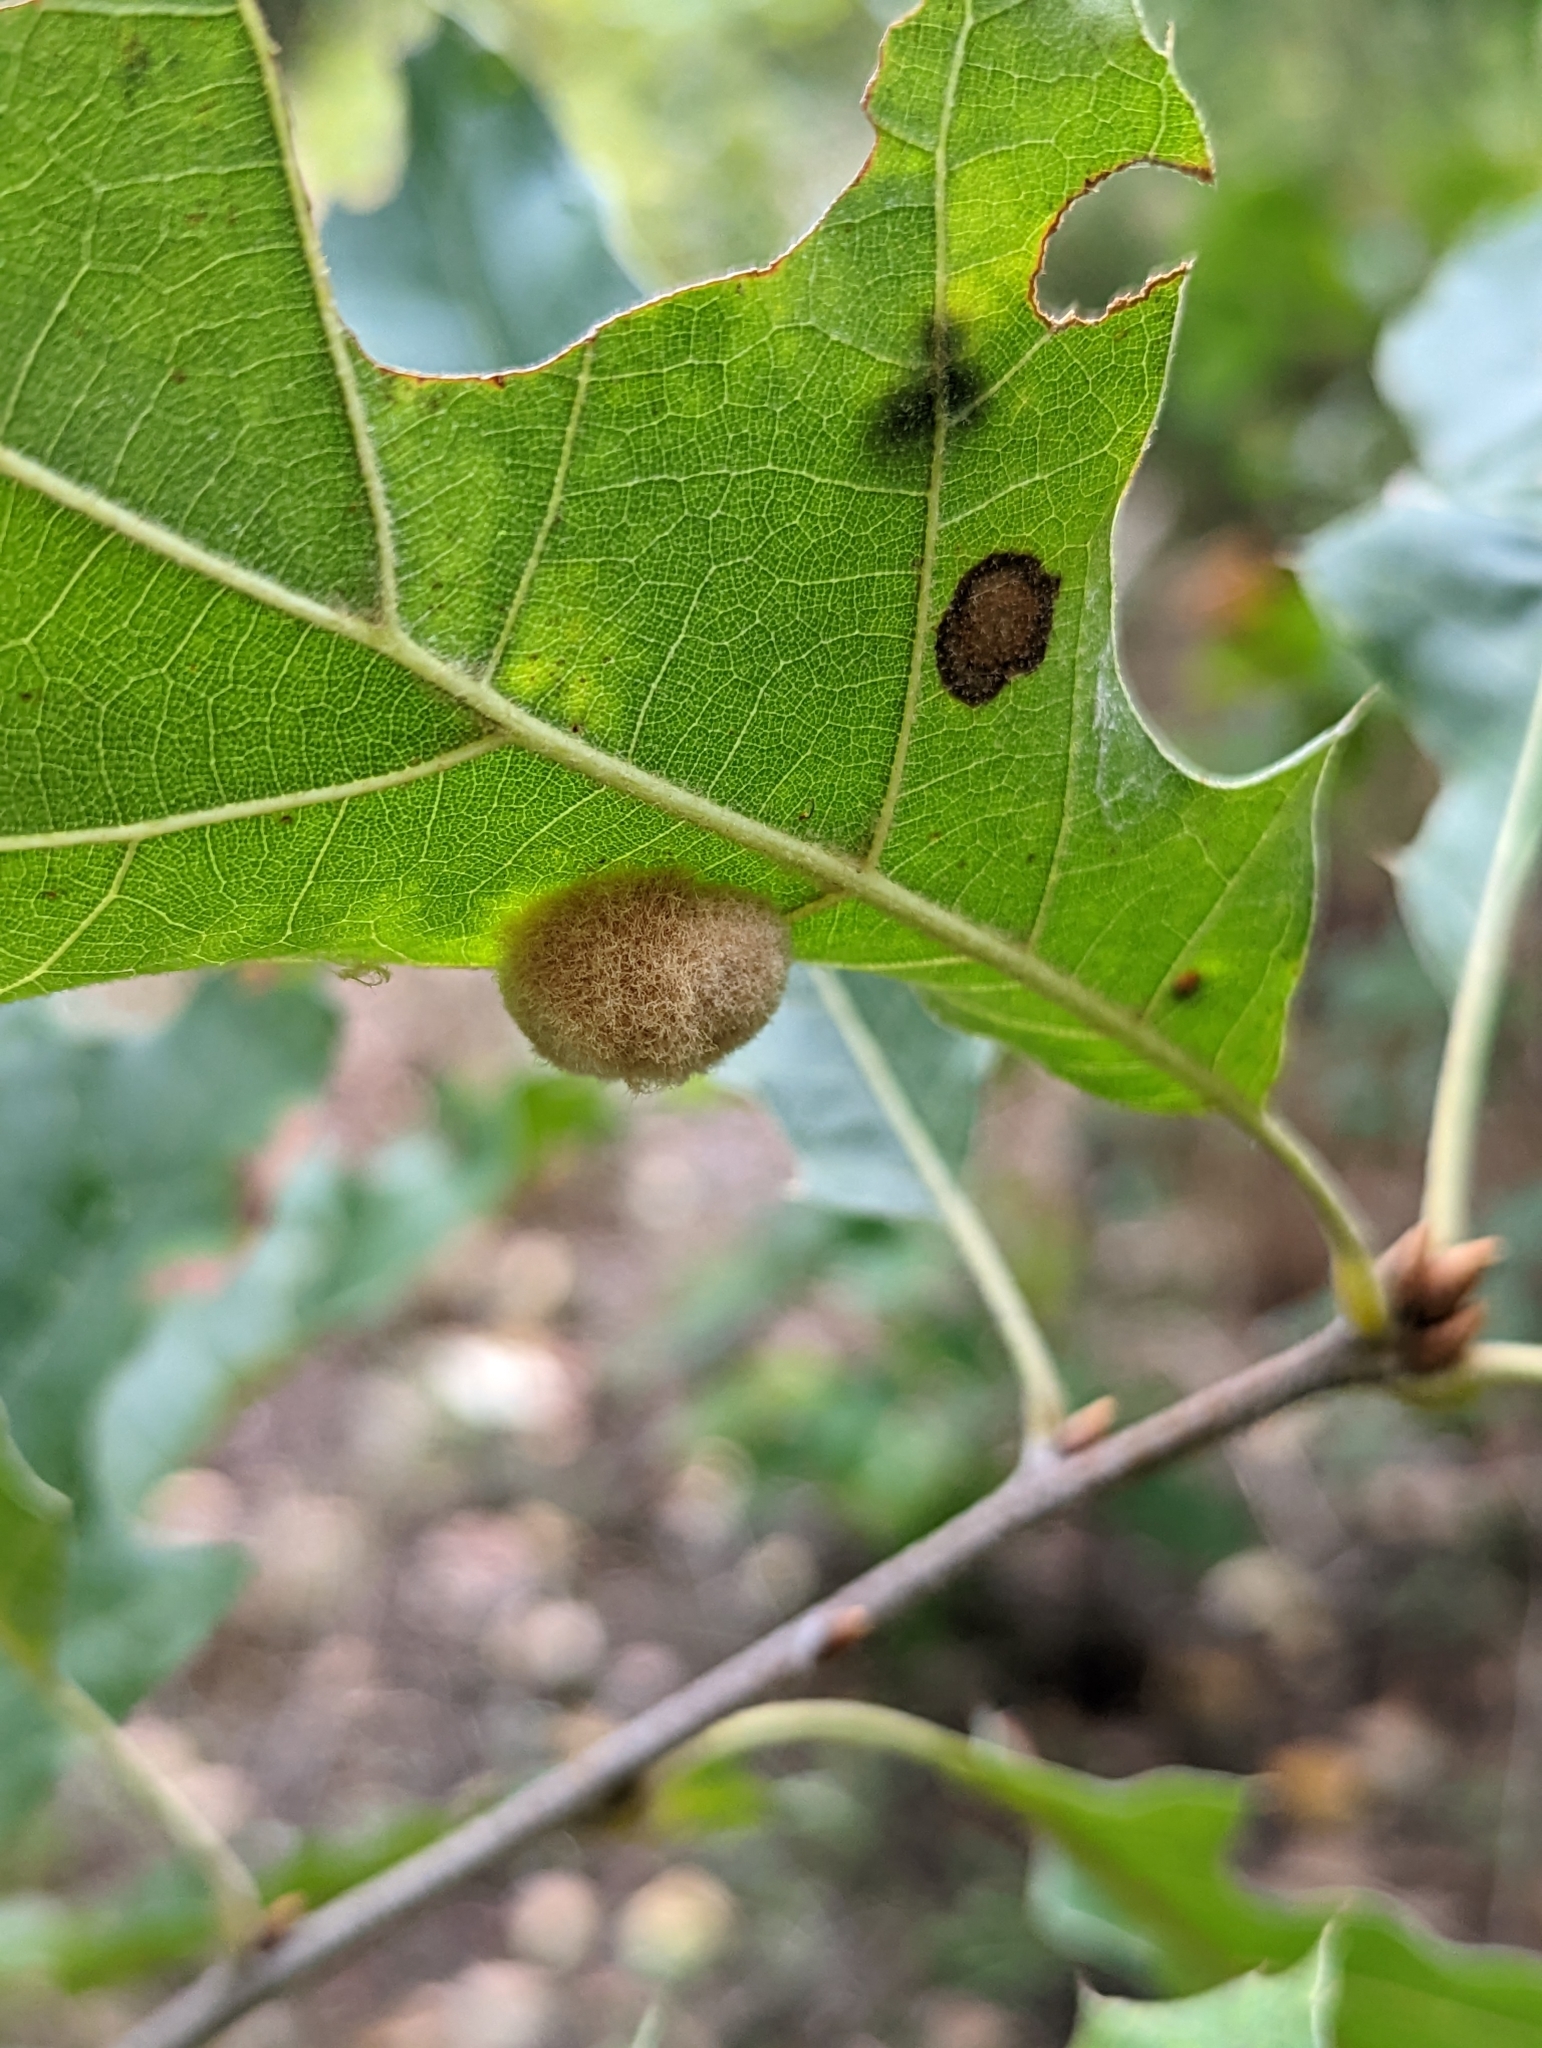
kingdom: Animalia
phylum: Arthropoda
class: Insecta
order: Hymenoptera
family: Cynipidae
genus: Callirhytis
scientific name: Callirhytis
